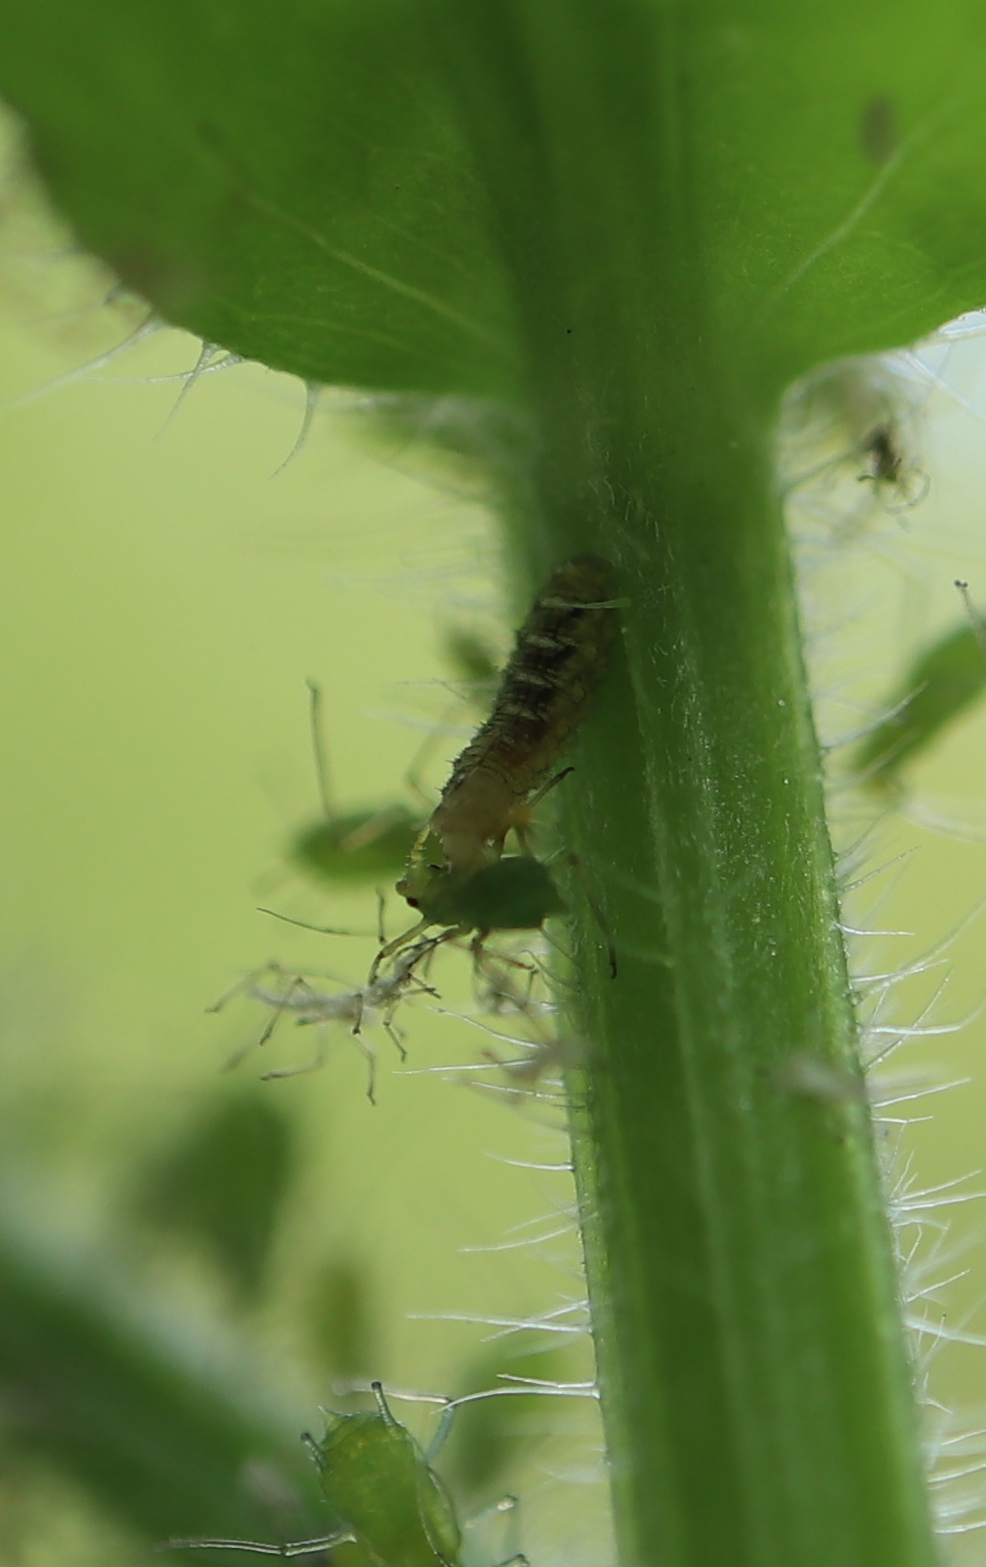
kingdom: Animalia
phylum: Arthropoda
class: Insecta
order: Diptera
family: Syrphidae
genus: Eupeodes
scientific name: Eupeodes
